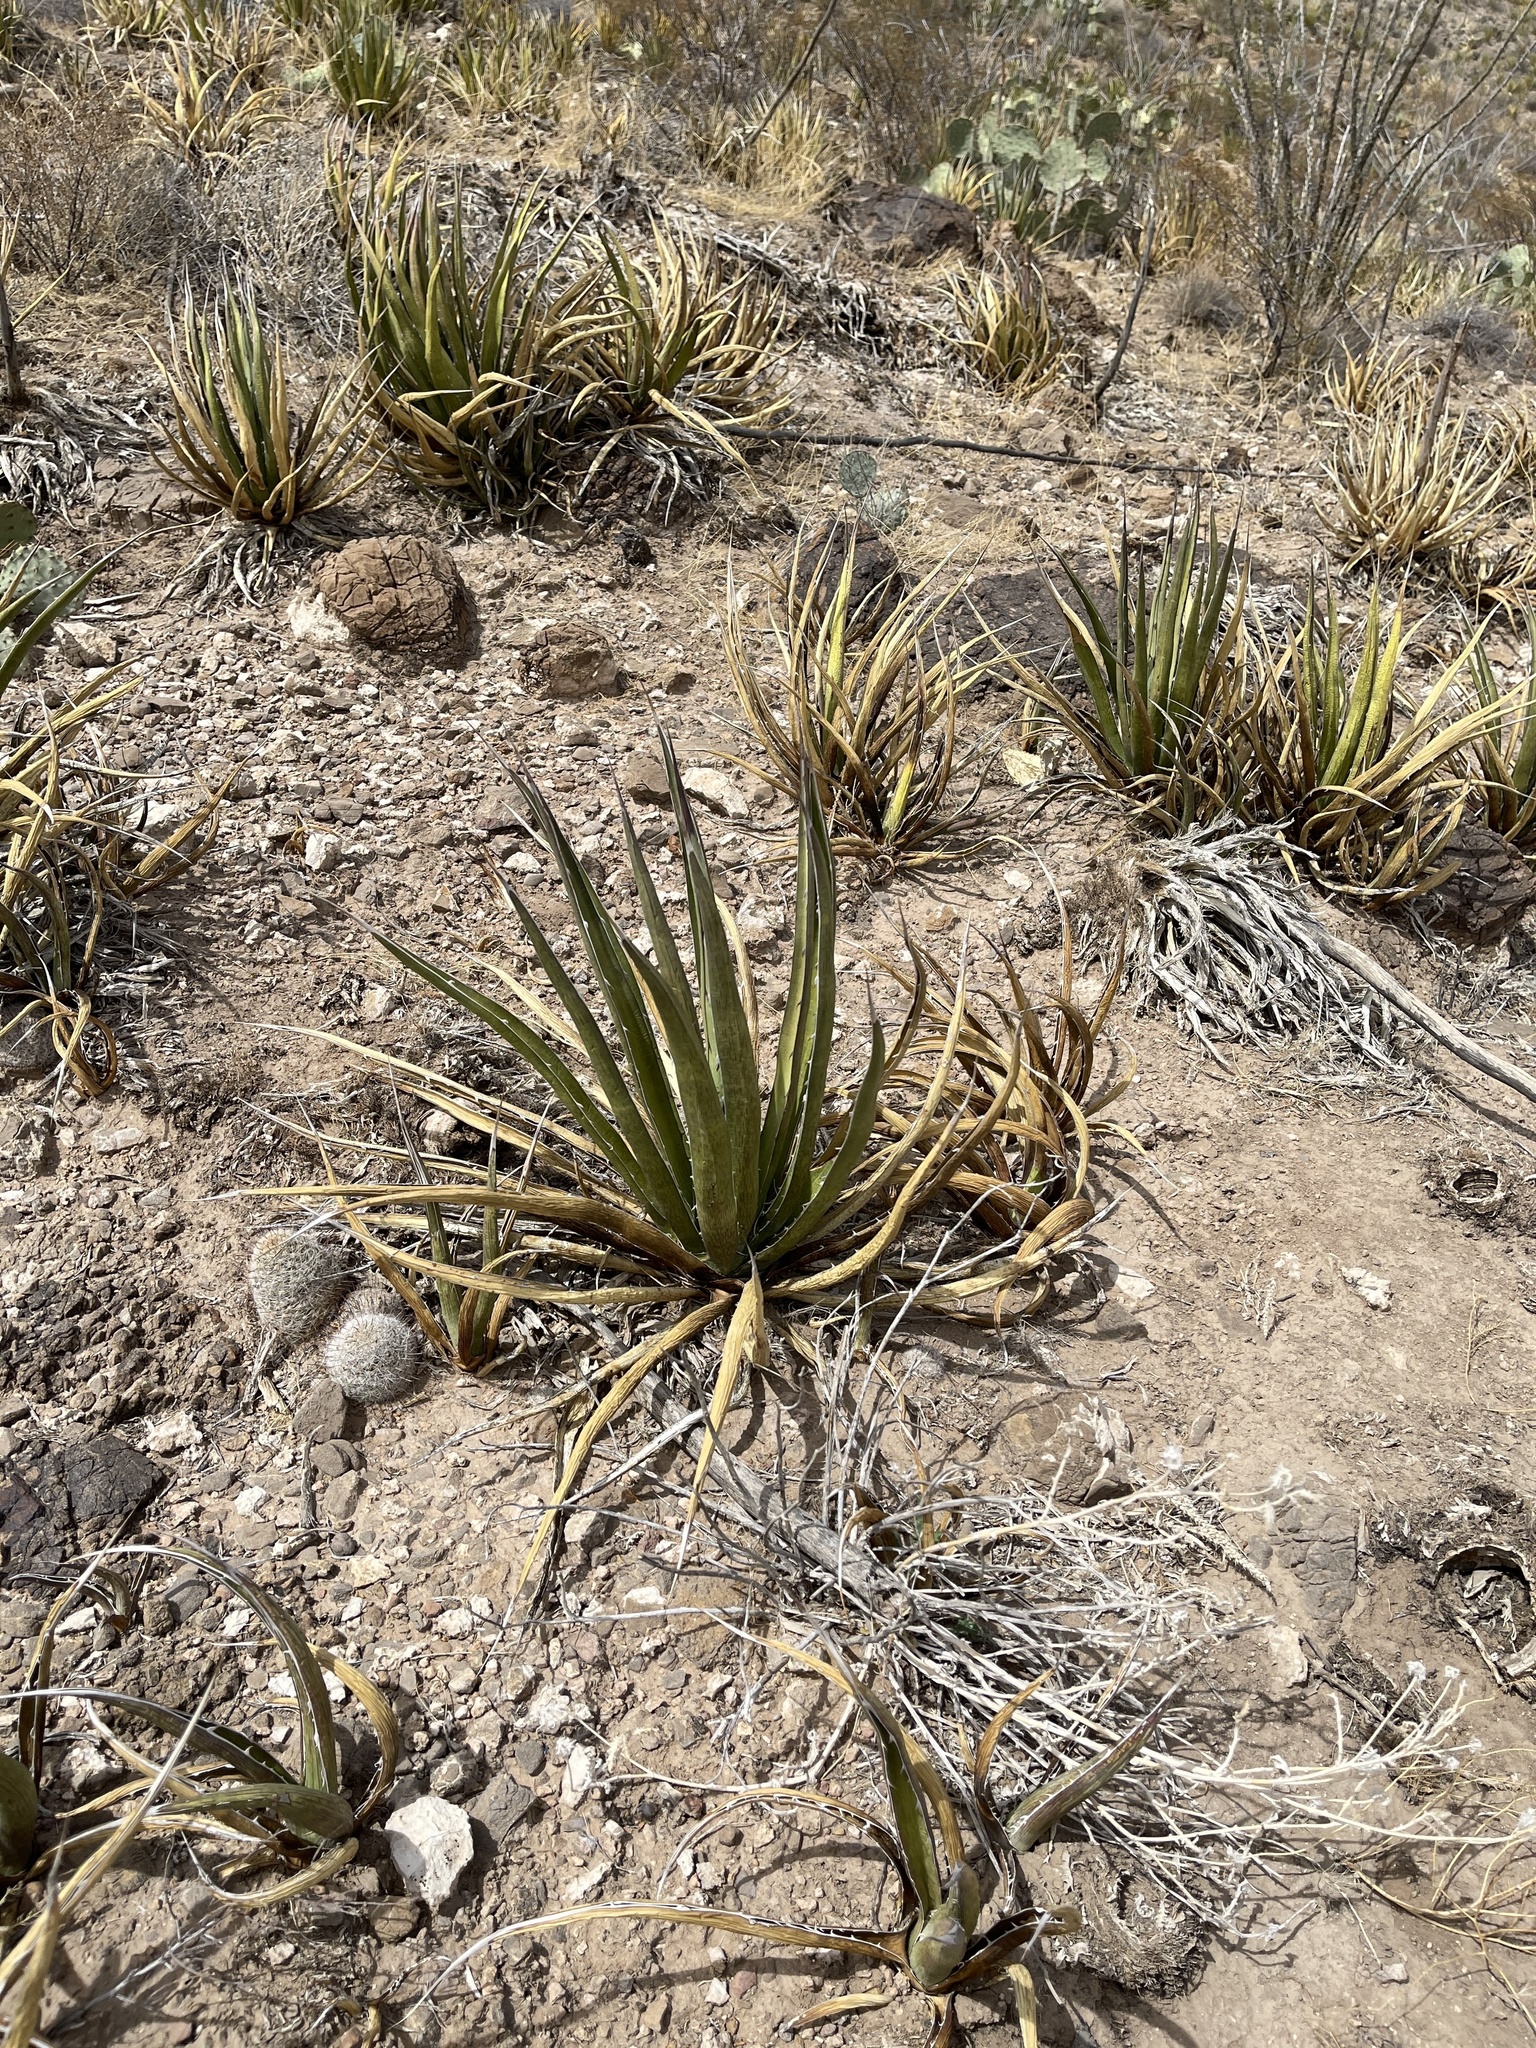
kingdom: Plantae
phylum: Tracheophyta
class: Liliopsida
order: Asparagales
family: Asparagaceae
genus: Agave
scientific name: Agave lechuguilla
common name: Lecheguilla agave
